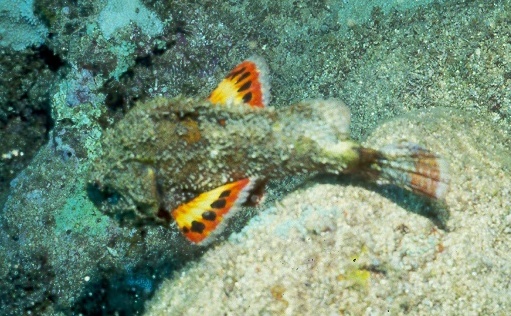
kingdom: Animalia
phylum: Chordata
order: Scorpaeniformes
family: Scorpaenidae
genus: Scorpaenopsis
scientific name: Scorpaenopsis diabolus
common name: False stonefish
